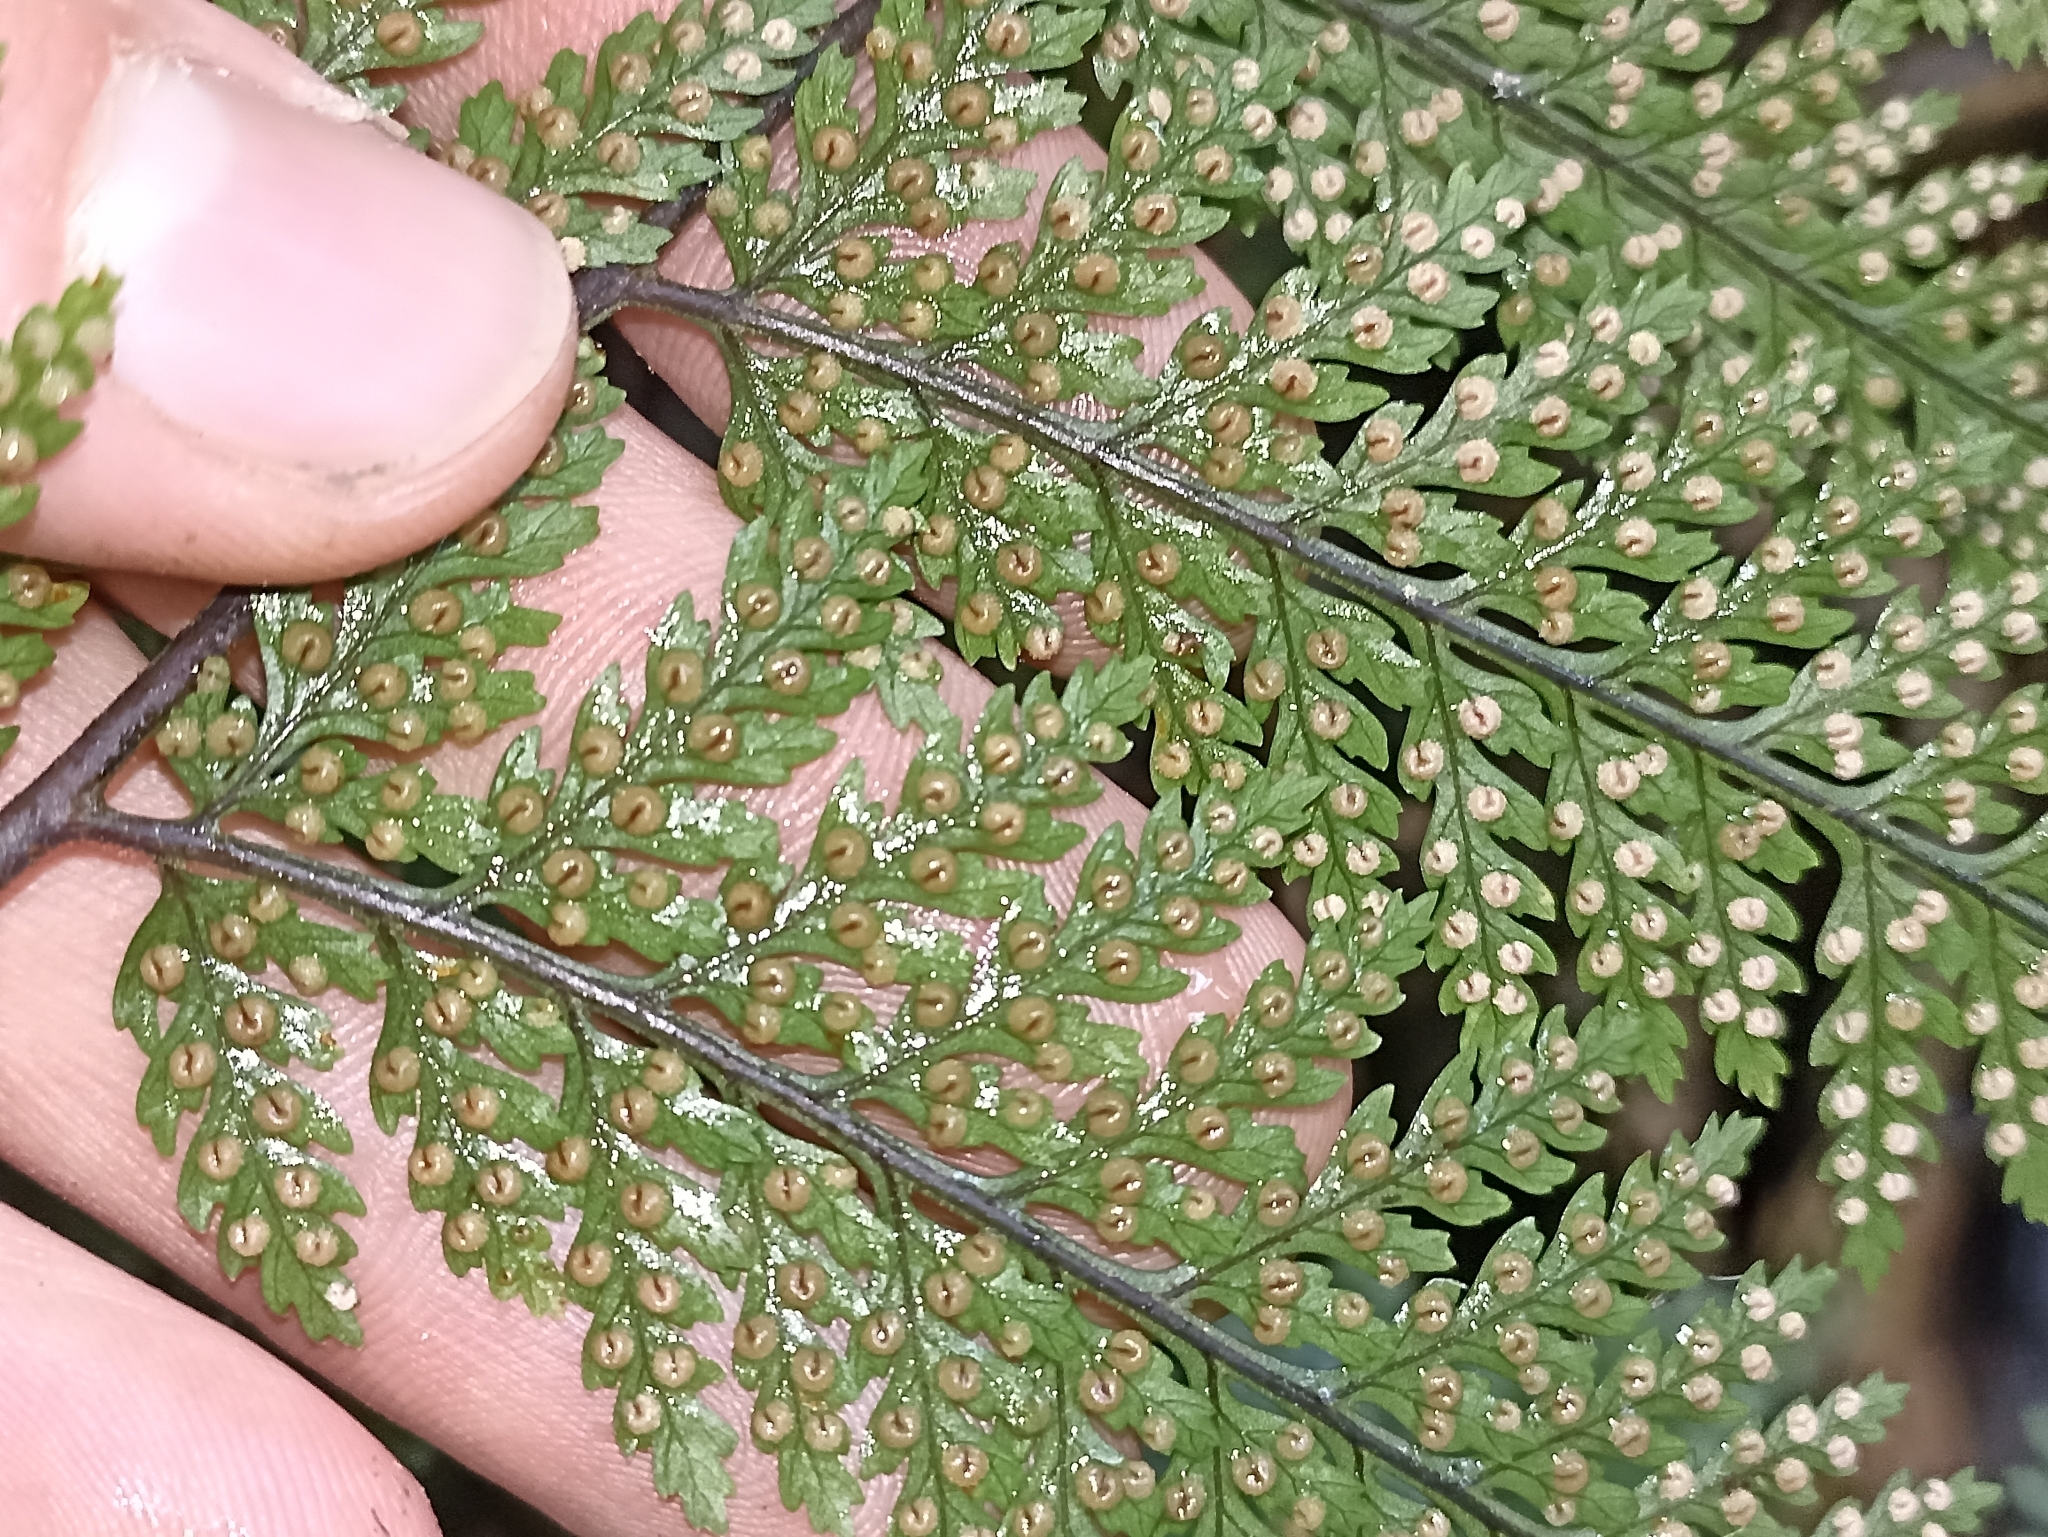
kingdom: Plantae
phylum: Tracheophyta
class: Polypodiopsida
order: Polypodiales
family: Dryopteridaceae
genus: Parapolystichum
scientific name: Parapolystichum glabellum
